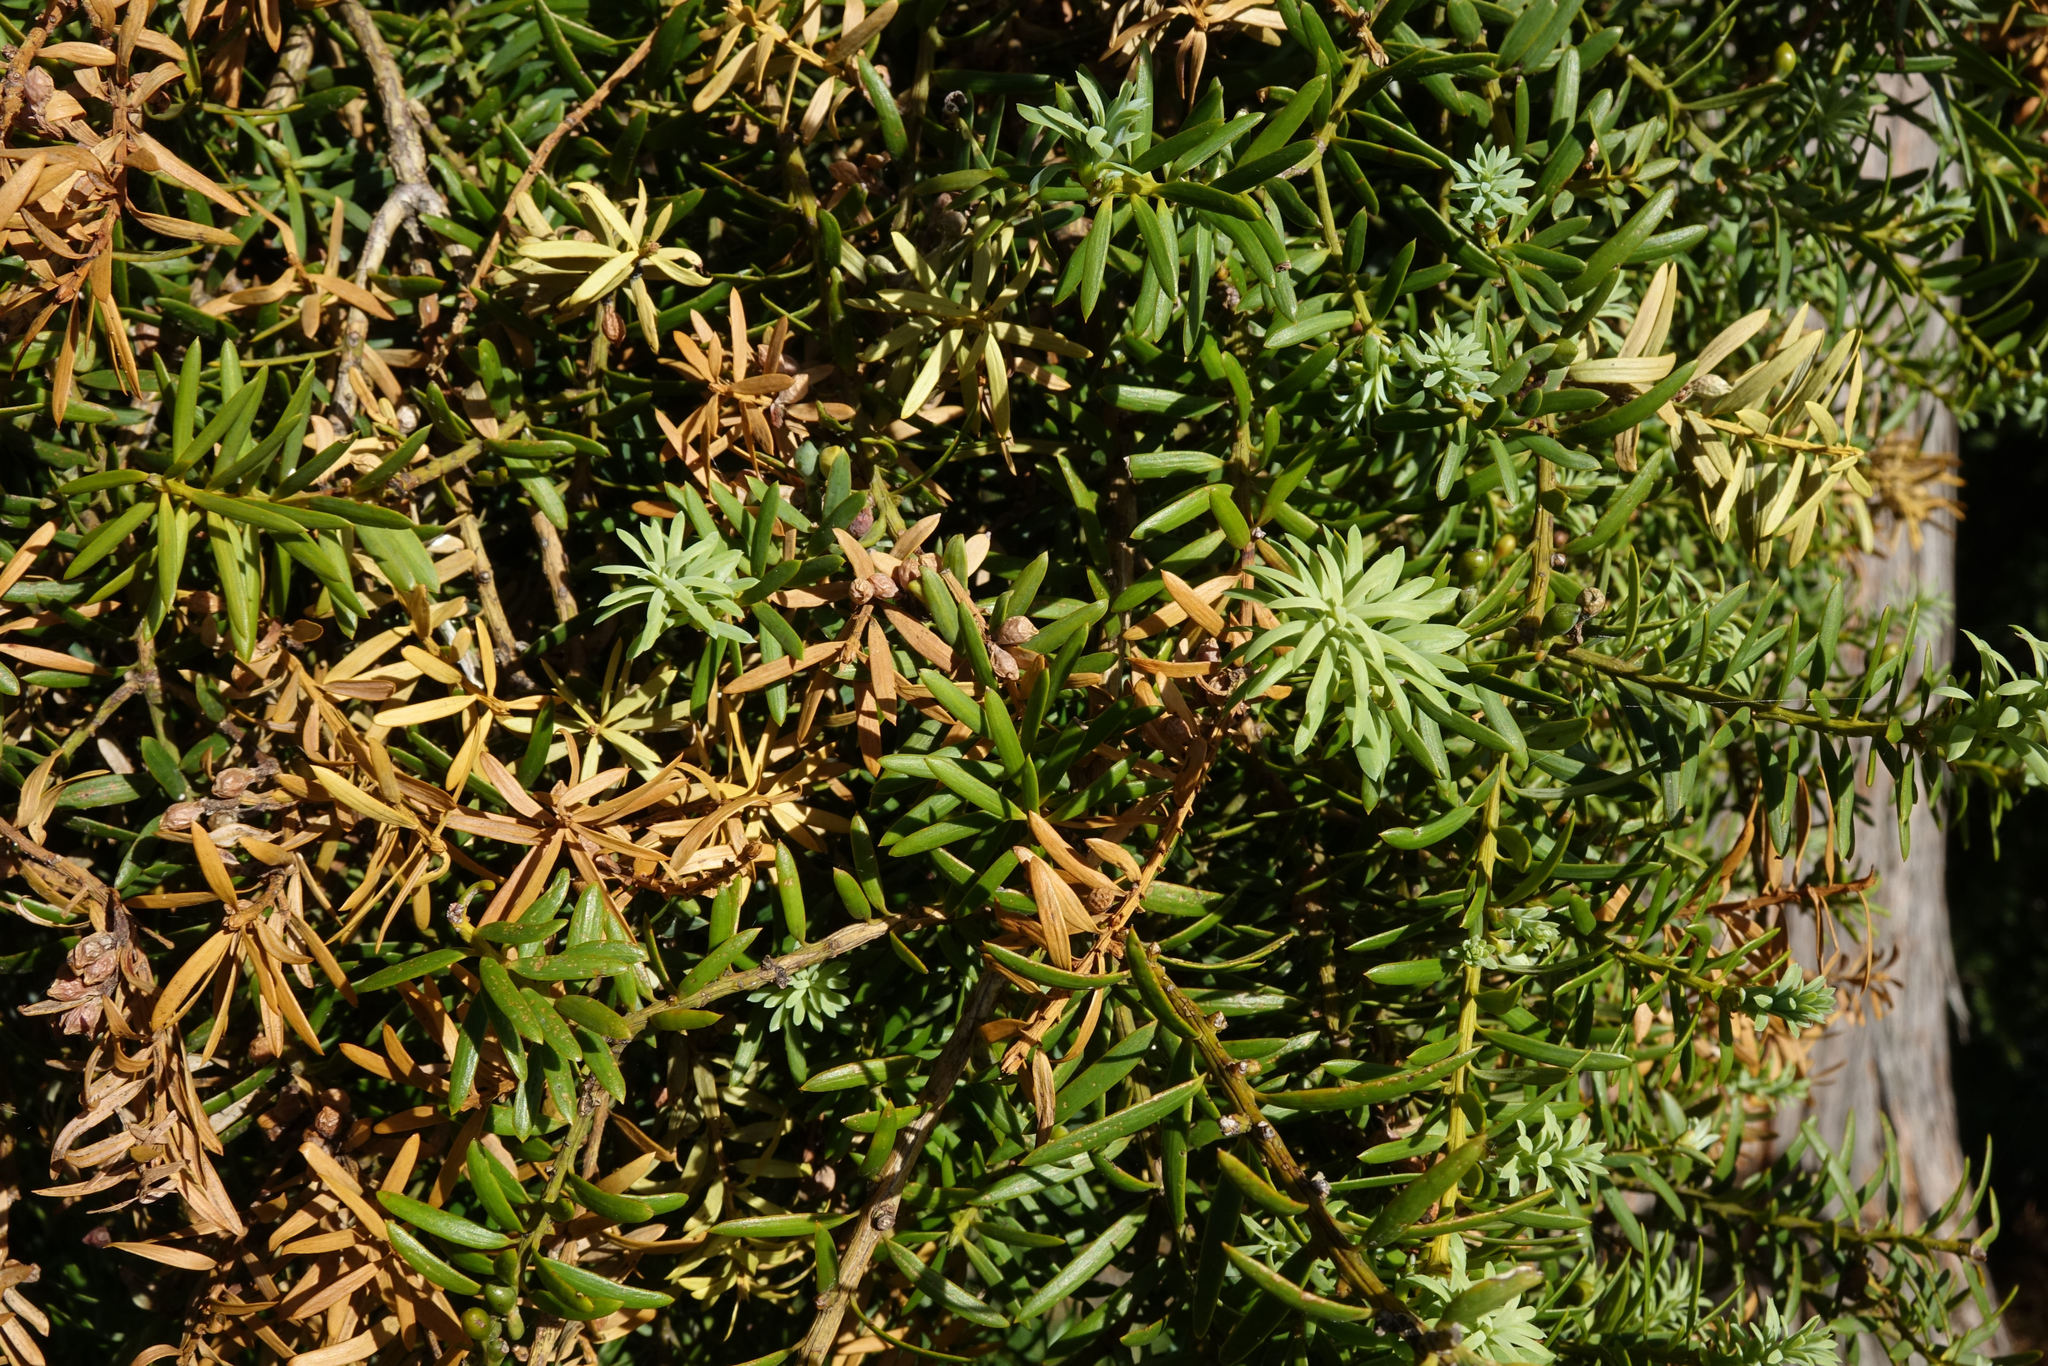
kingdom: Plantae
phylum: Tracheophyta
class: Pinopsida
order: Pinales
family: Podocarpaceae
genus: Podocarpus
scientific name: Podocarpus totara
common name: Totara
